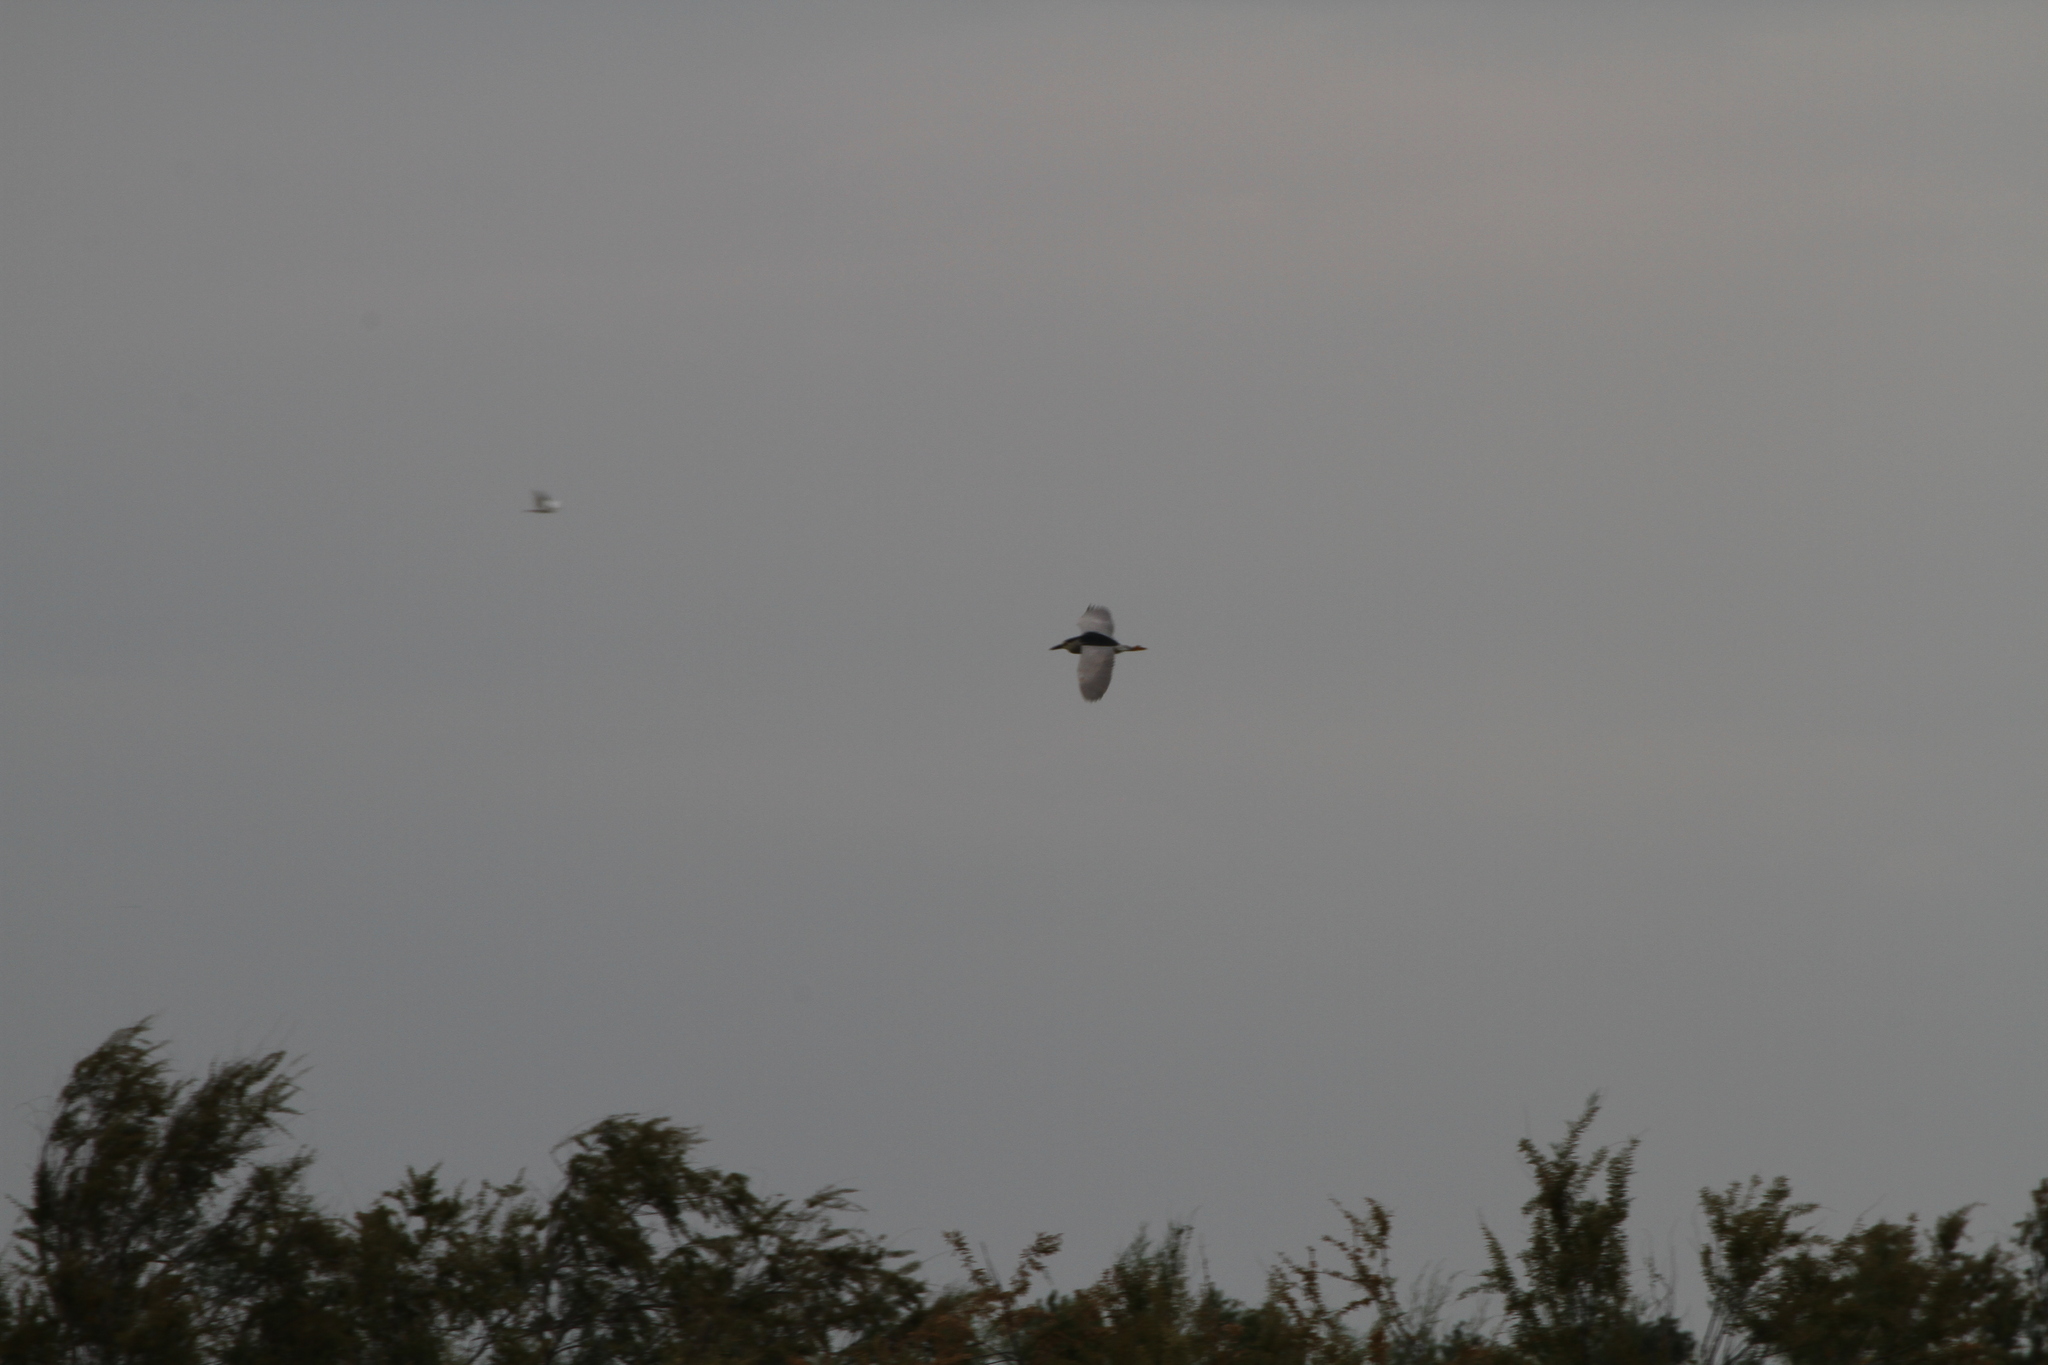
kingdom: Animalia
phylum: Chordata
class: Aves
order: Pelecaniformes
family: Ardeidae
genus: Nycticorax
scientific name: Nycticorax nycticorax
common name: Black-crowned night heron
